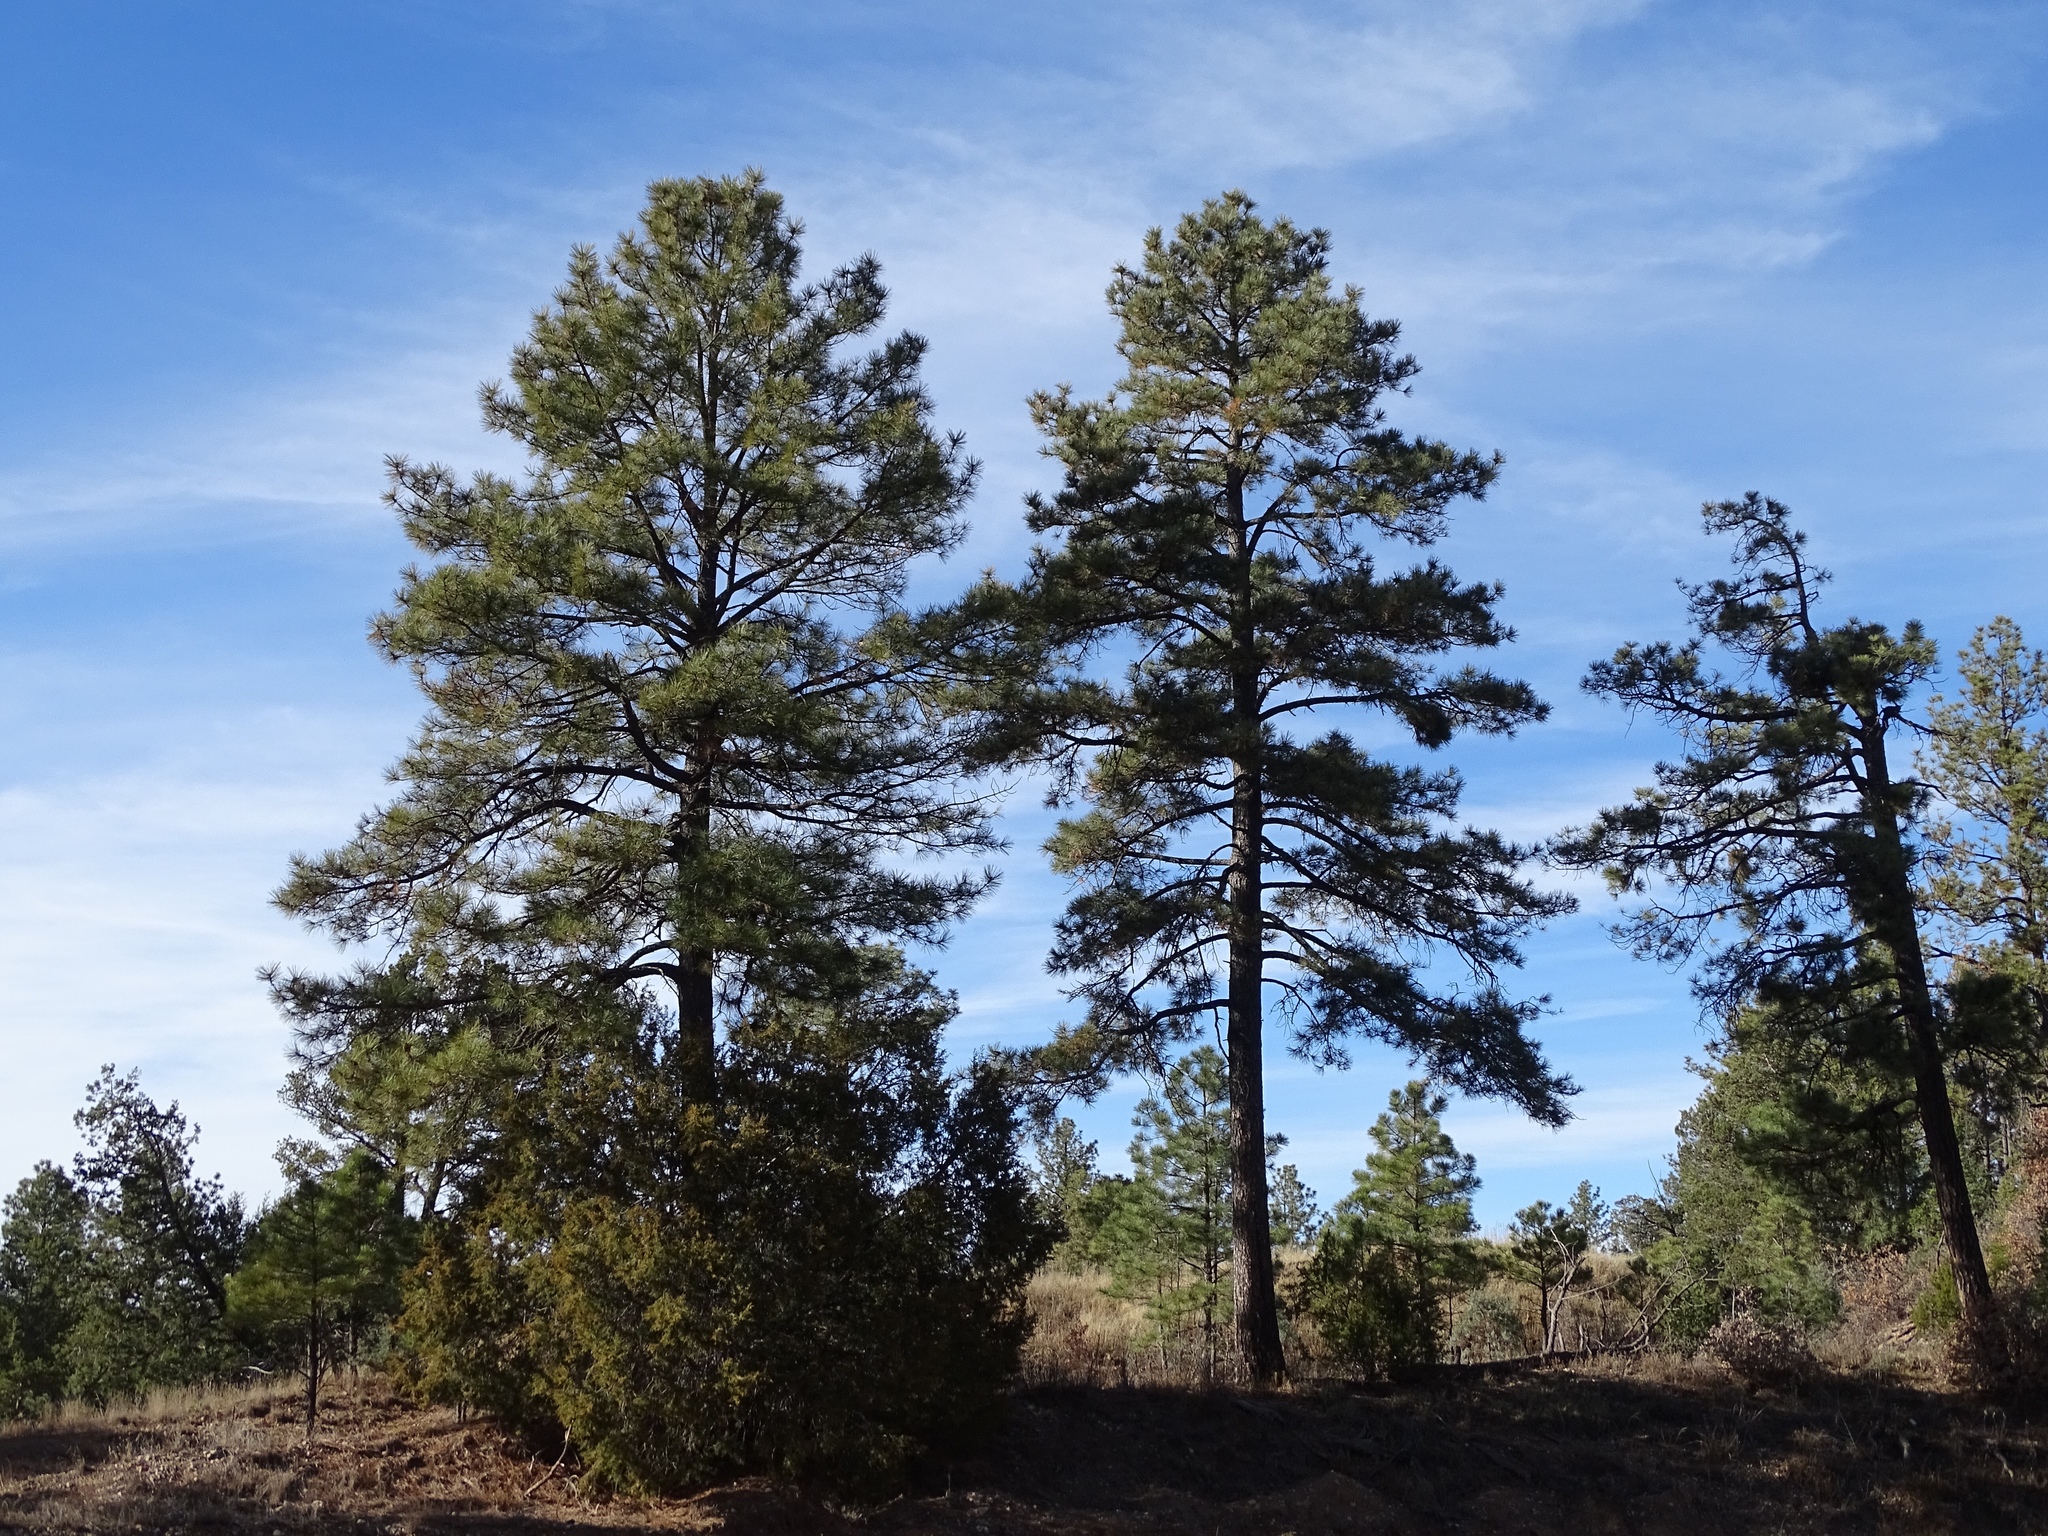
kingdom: Plantae
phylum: Tracheophyta
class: Pinopsida
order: Pinales
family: Pinaceae
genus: Pinus
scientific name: Pinus ponderosa
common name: Western yellow-pine
